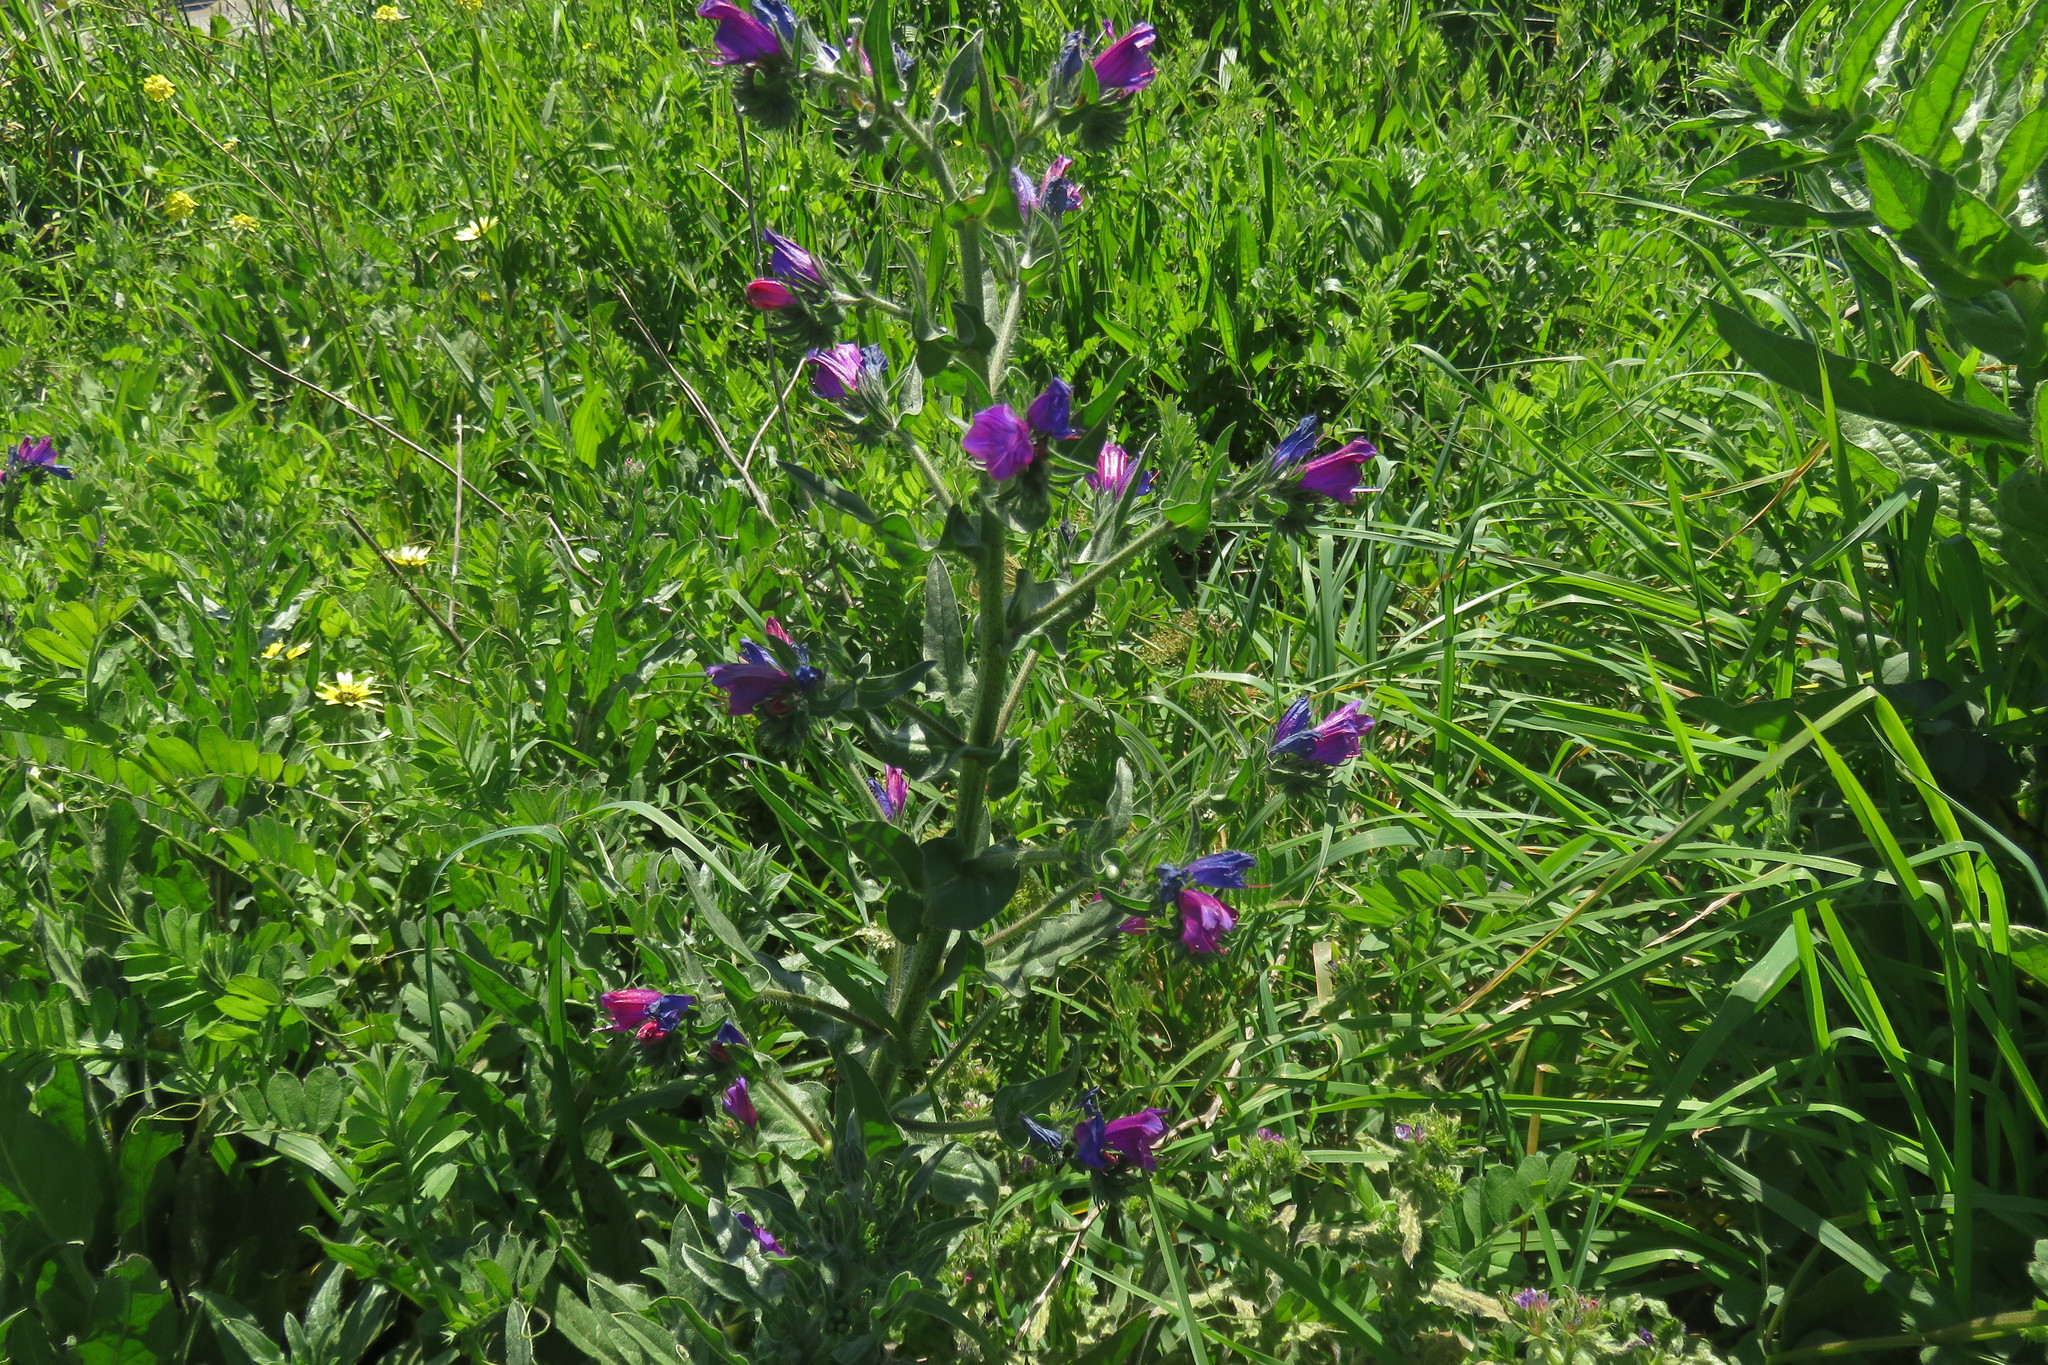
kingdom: Plantae
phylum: Tracheophyta
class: Magnoliopsida
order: Boraginales
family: Boraginaceae
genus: Echium
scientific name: Echium plantagineum
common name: Purple viper's-bugloss
